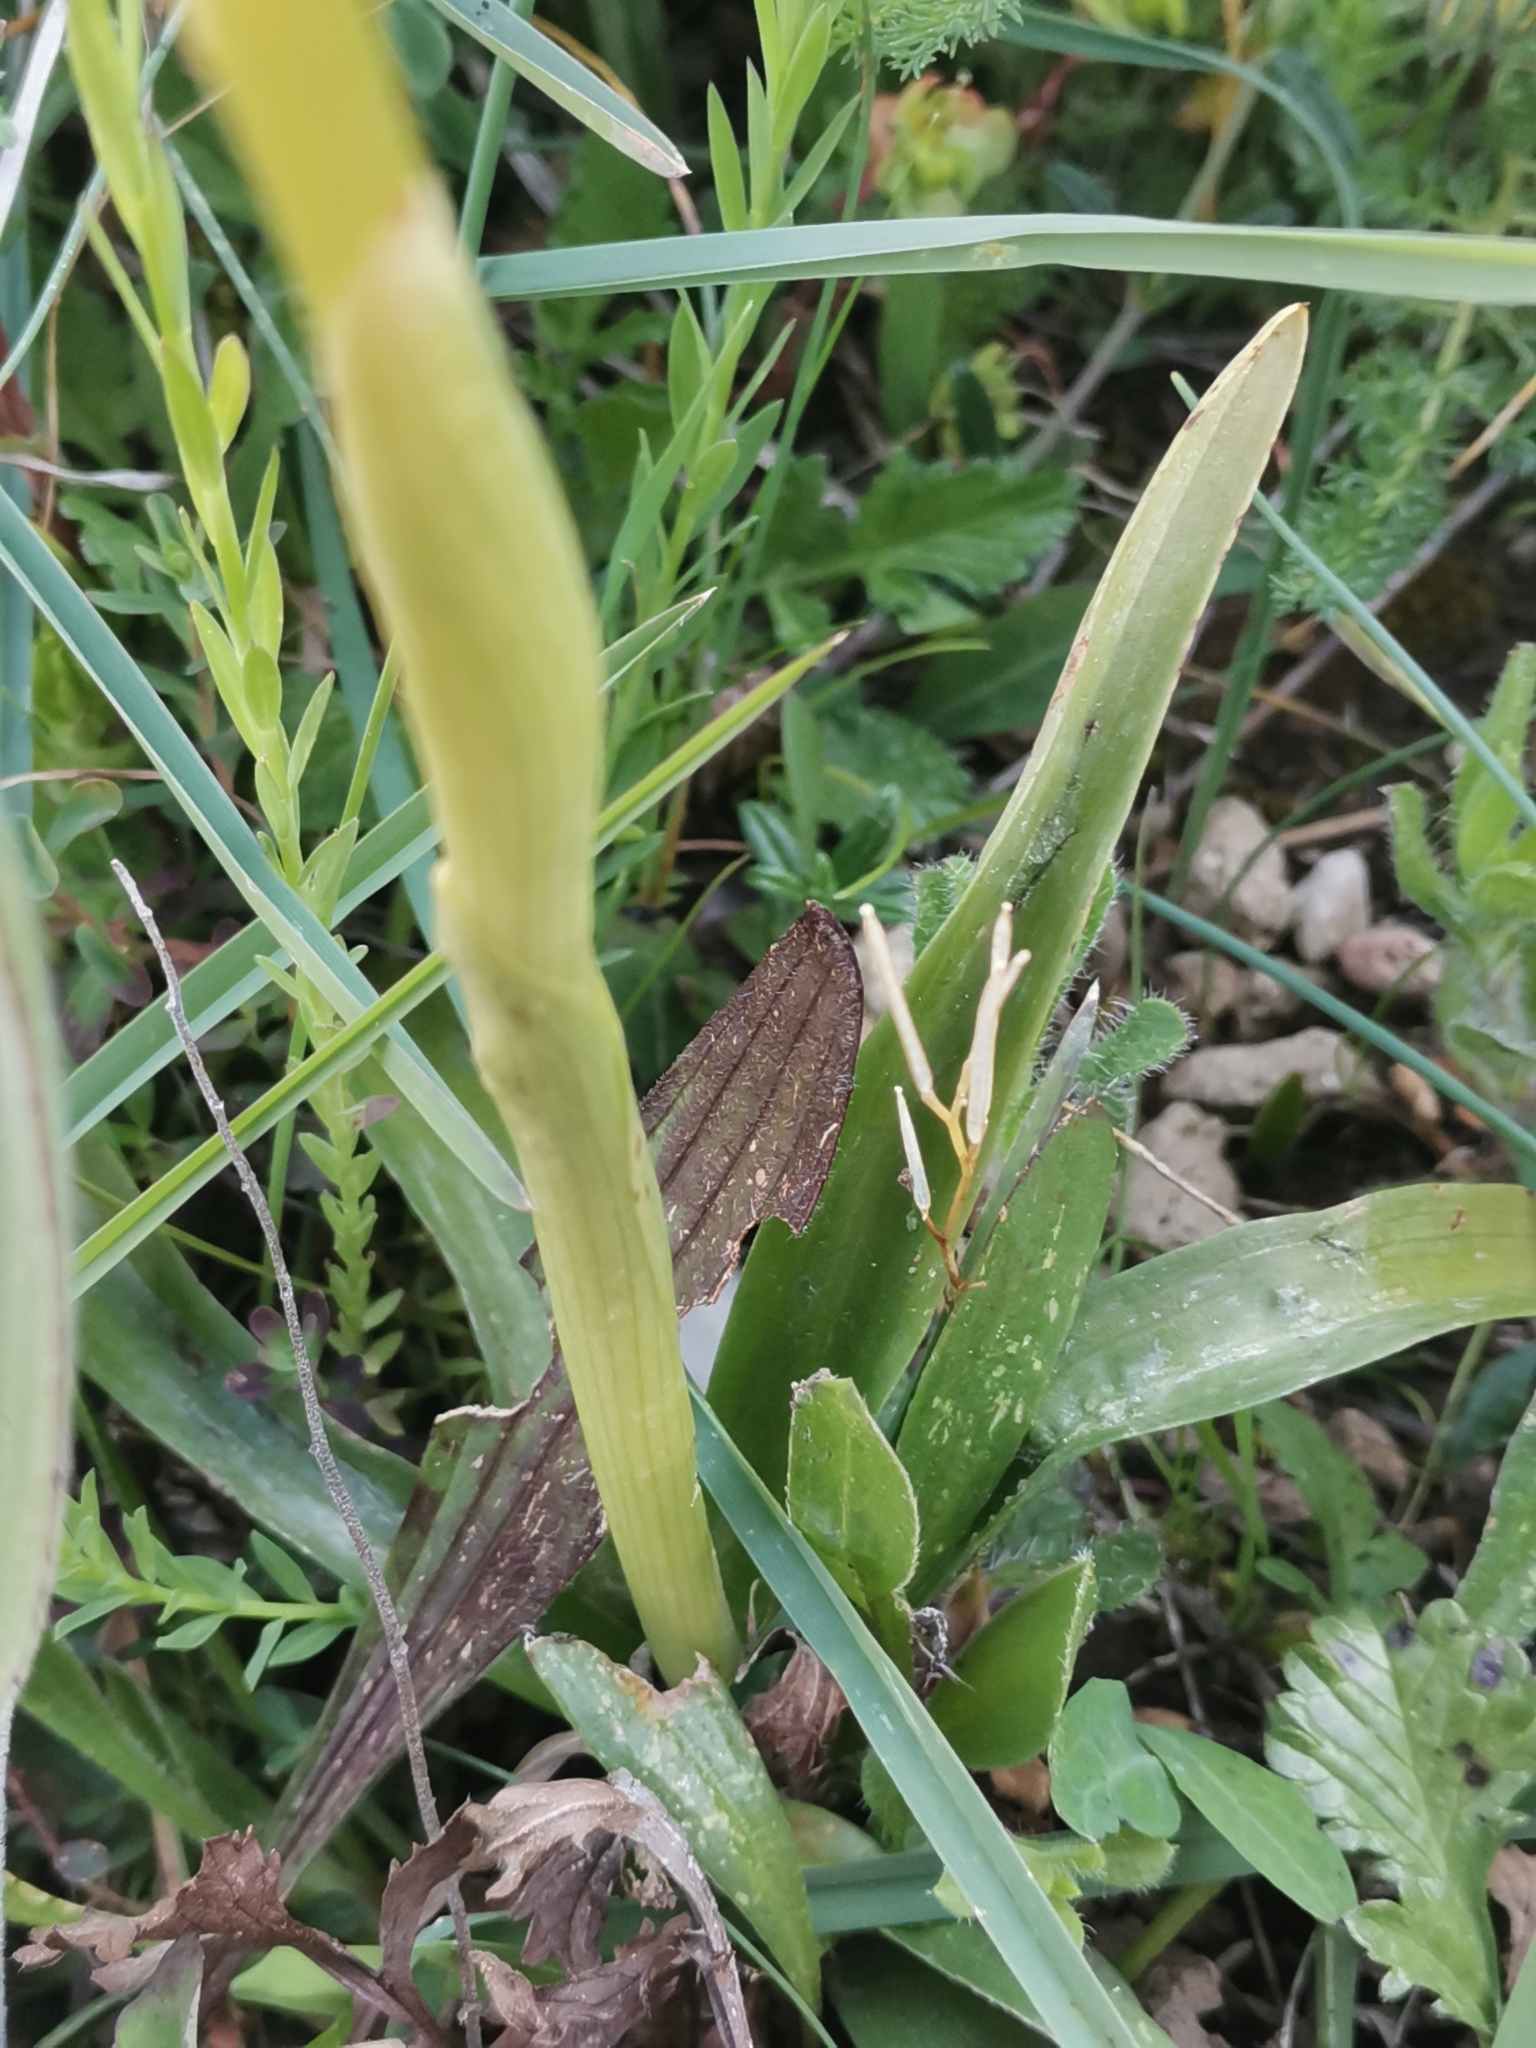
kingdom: Plantae
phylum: Tracheophyta
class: Liliopsida
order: Asparagales
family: Orchidaceae
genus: Orchis
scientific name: Orchis pauciflora
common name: Few-flowered orchid
